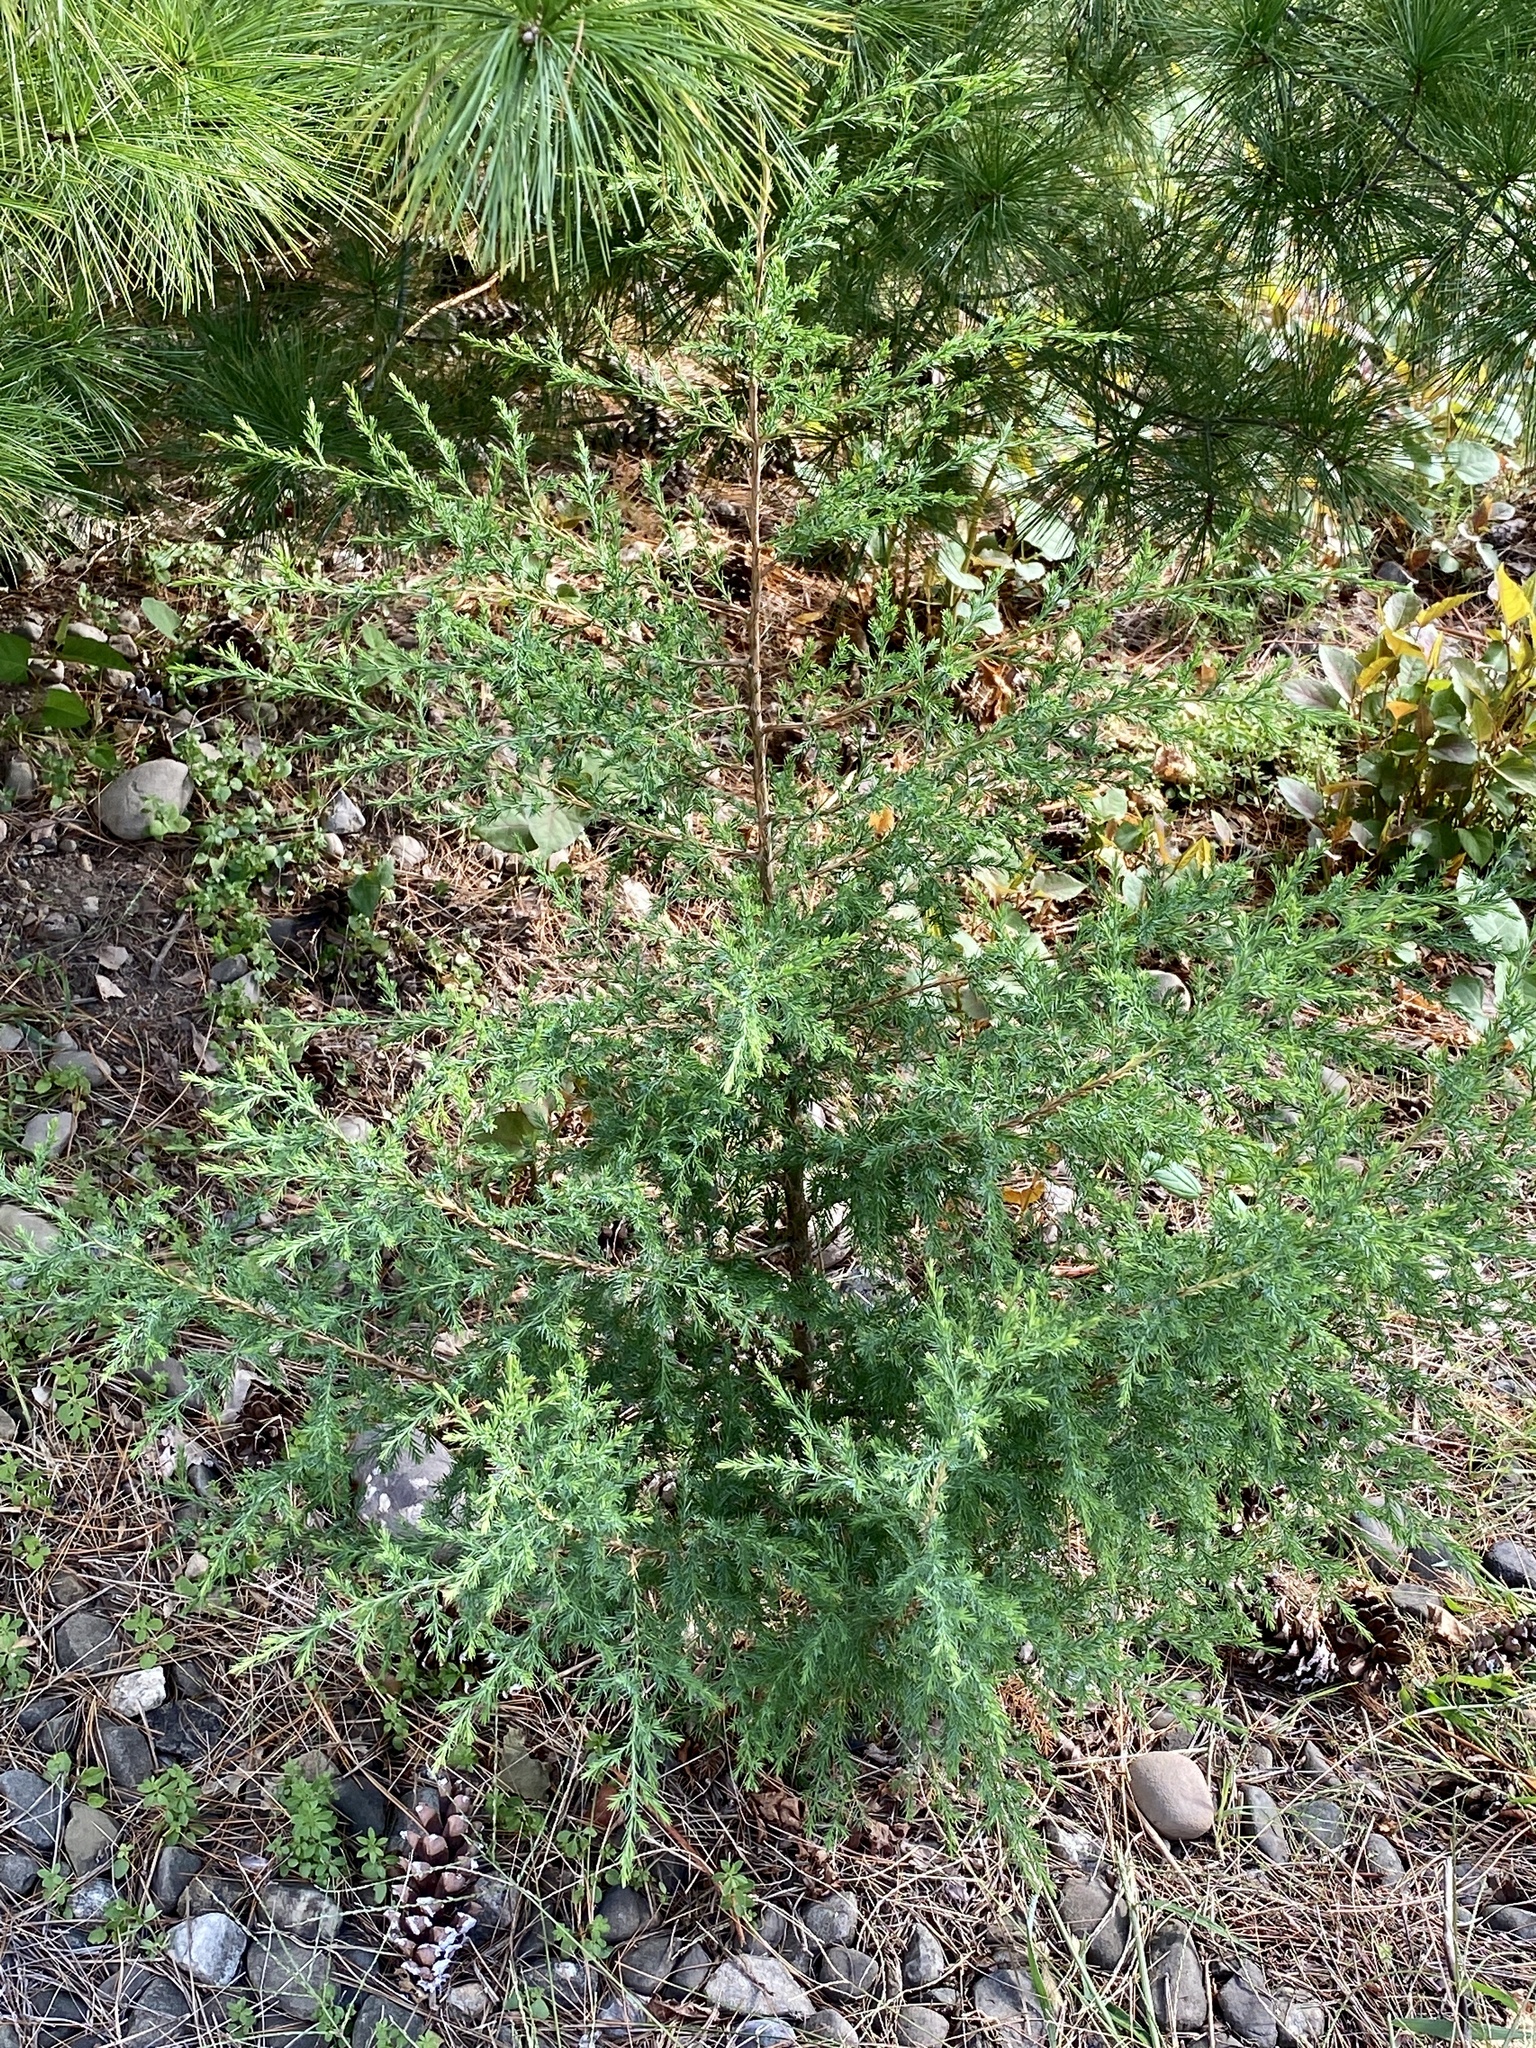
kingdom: Plantae
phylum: Tracheophyta
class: Pinopsida
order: Pinales
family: Cupressaceae
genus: Juniperus
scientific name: Juniperus virginiana
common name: Red juniper
